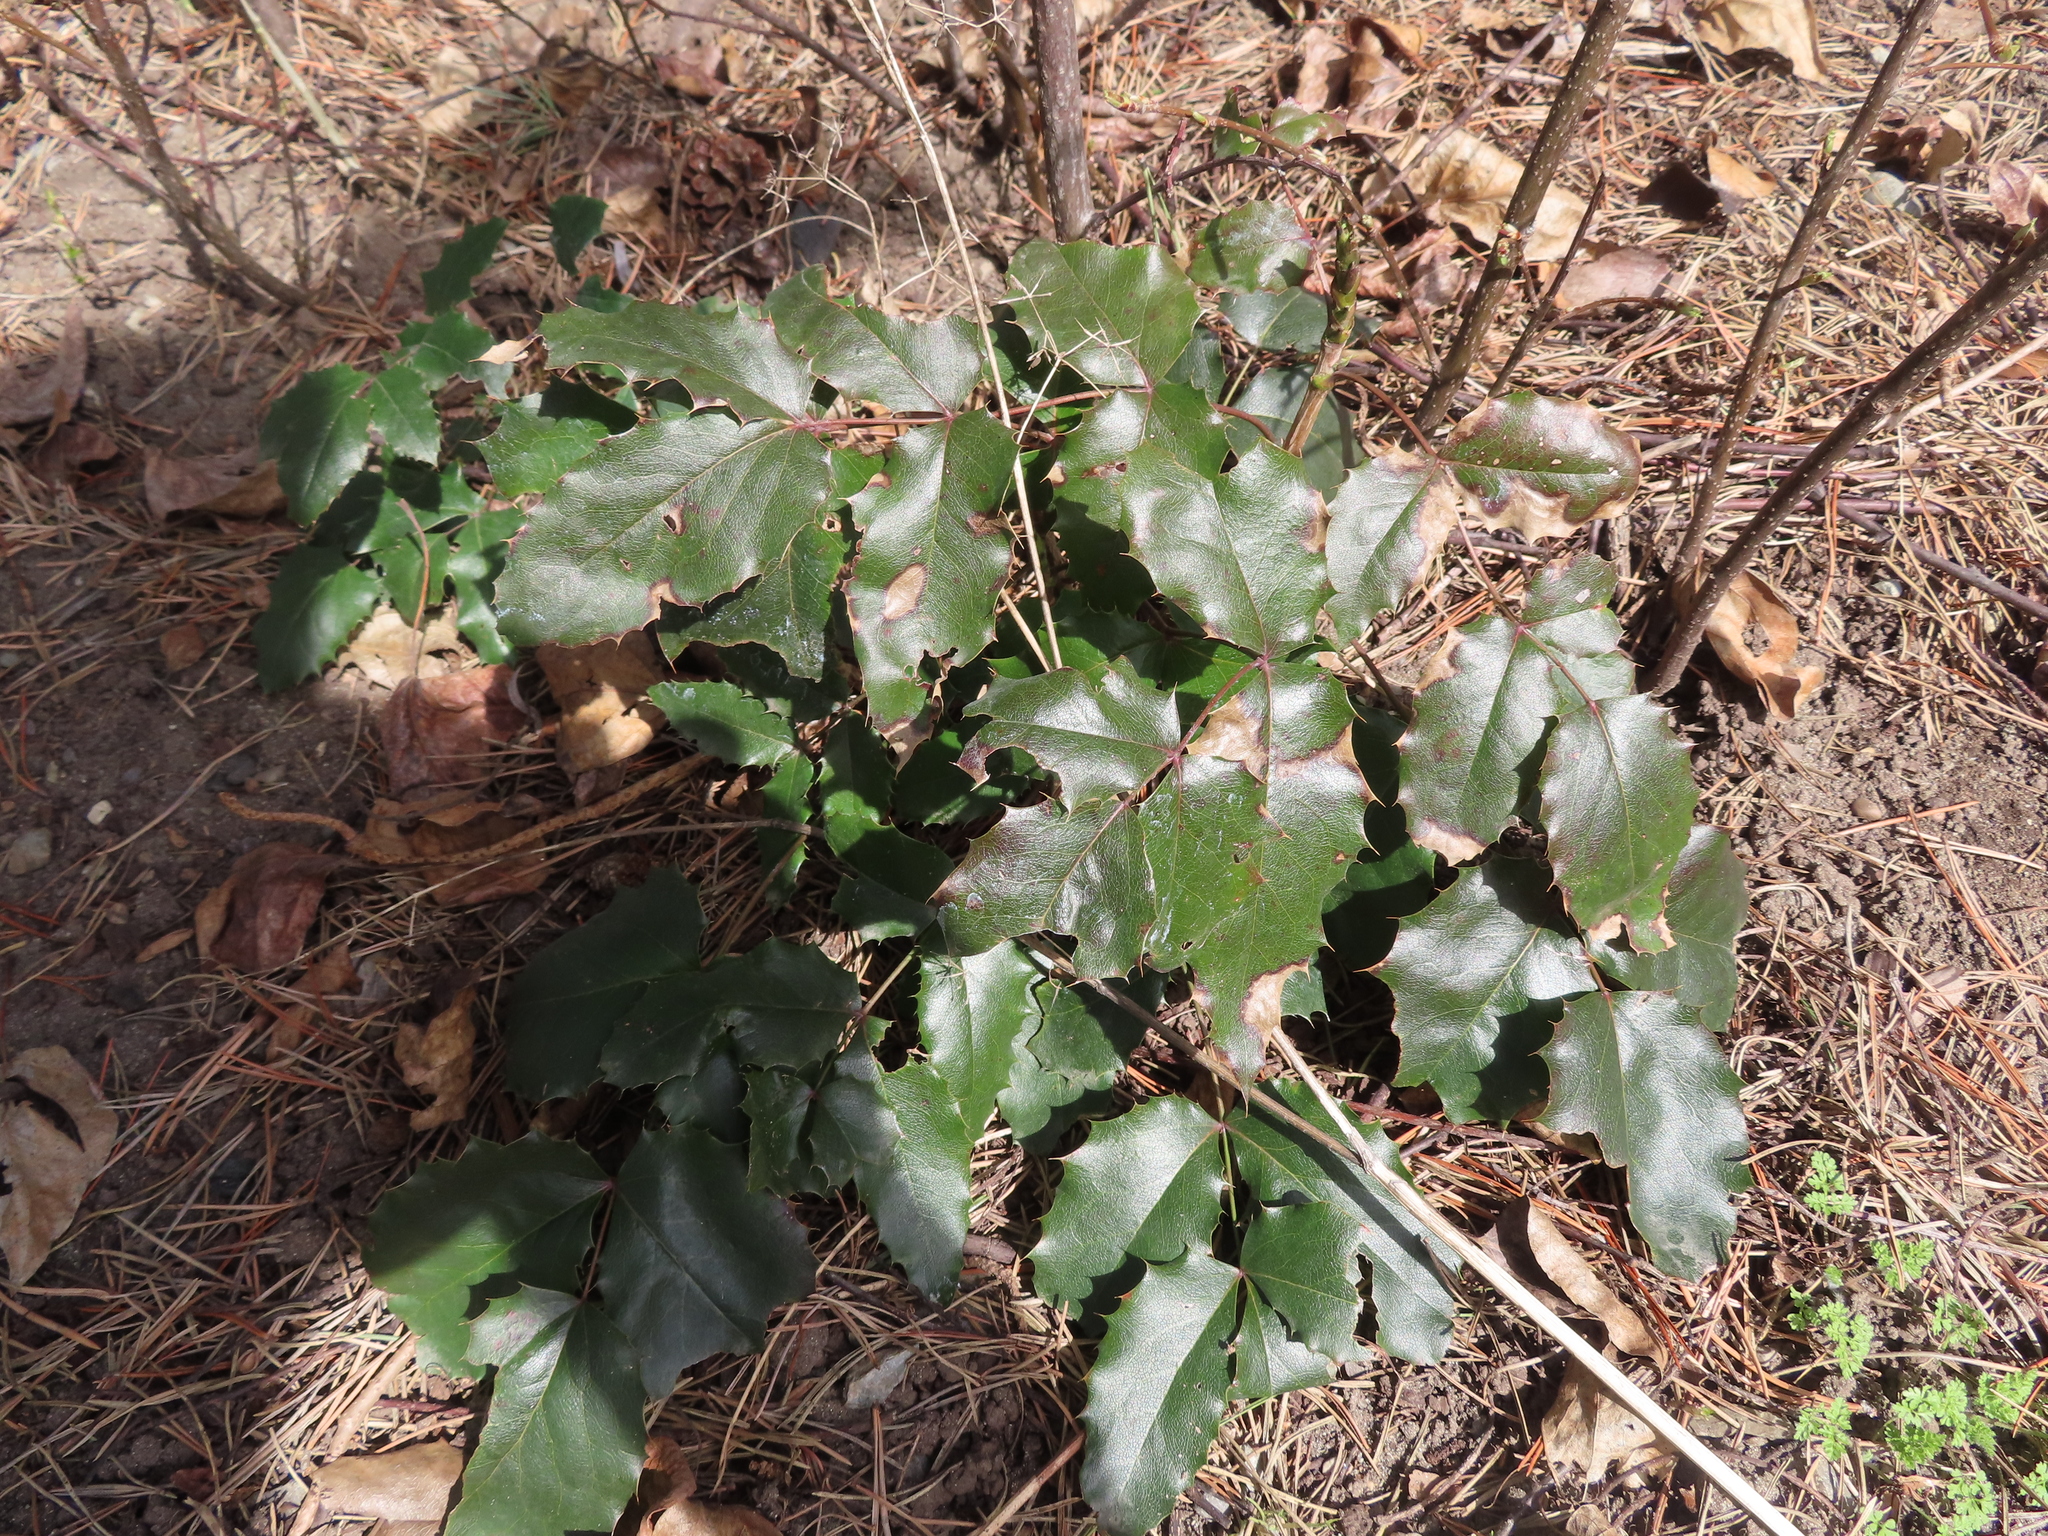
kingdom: Plantae
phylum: Tracheophyta
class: Magnoliopsida
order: Ranunculales
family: Berberidaceae
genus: Mahonia
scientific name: Mahonia aquifolium
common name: Oregon-grape
